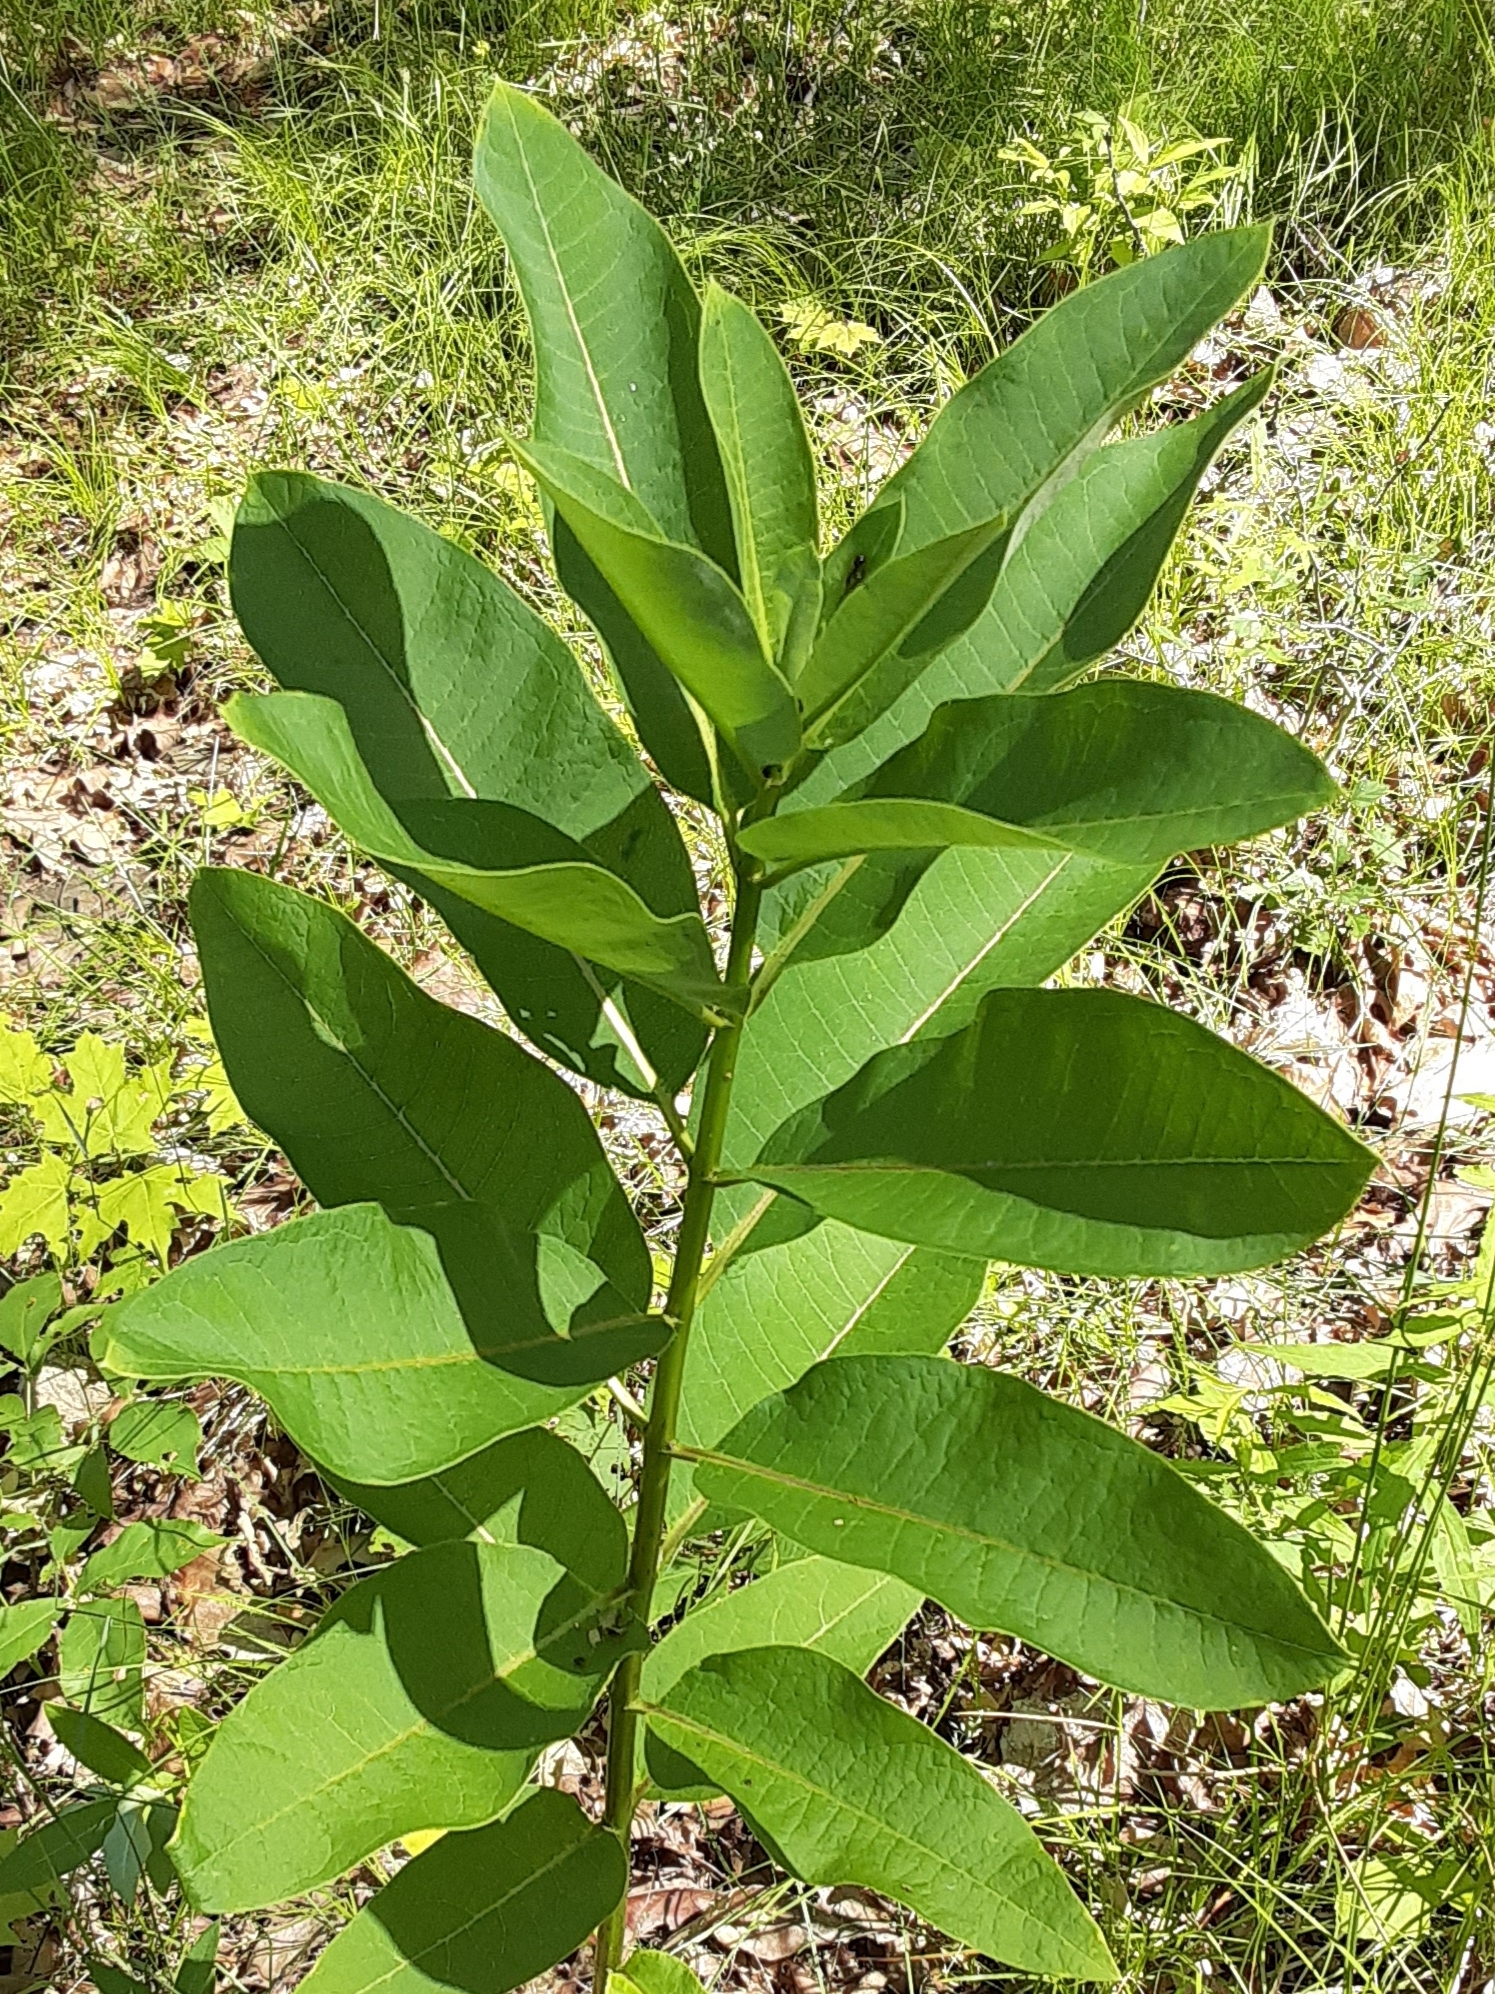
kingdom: Plantae
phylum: Tracheophyta
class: Magnoliopsida
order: Gentianales
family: Apocynaceae
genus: Asclepias
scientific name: Asclepias syriaca
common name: Common milkweed
